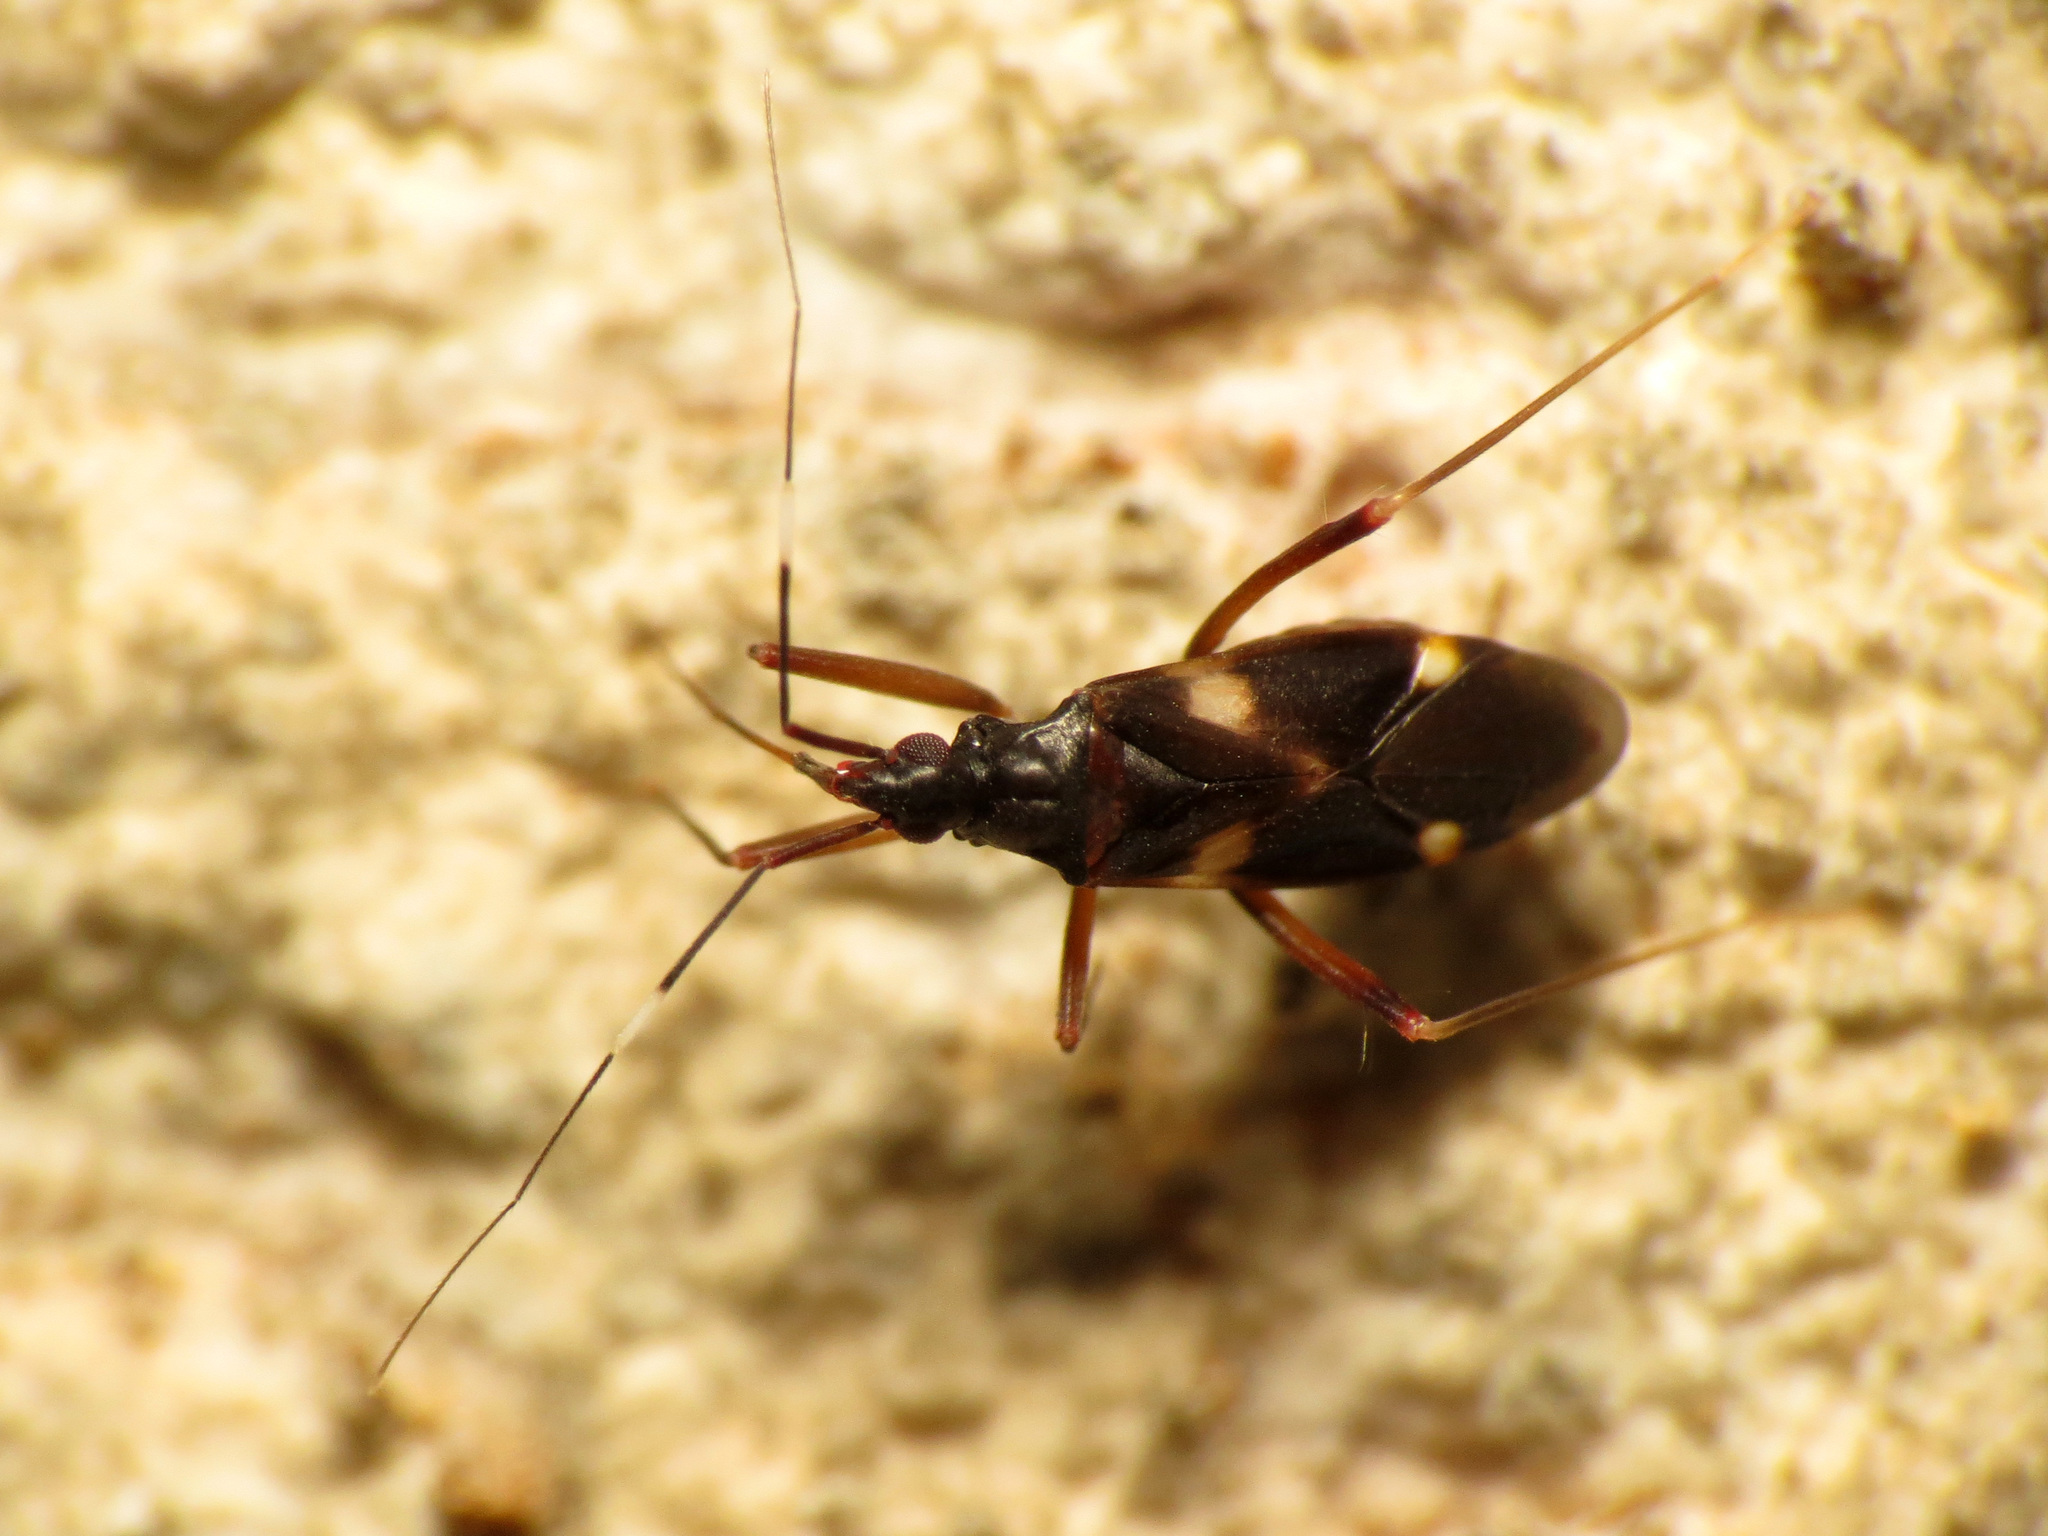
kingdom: Animalia
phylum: Arthropoda
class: Insecta
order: Hemiptera
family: Miridae
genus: Fulvius
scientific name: Fulvius imbecilis
